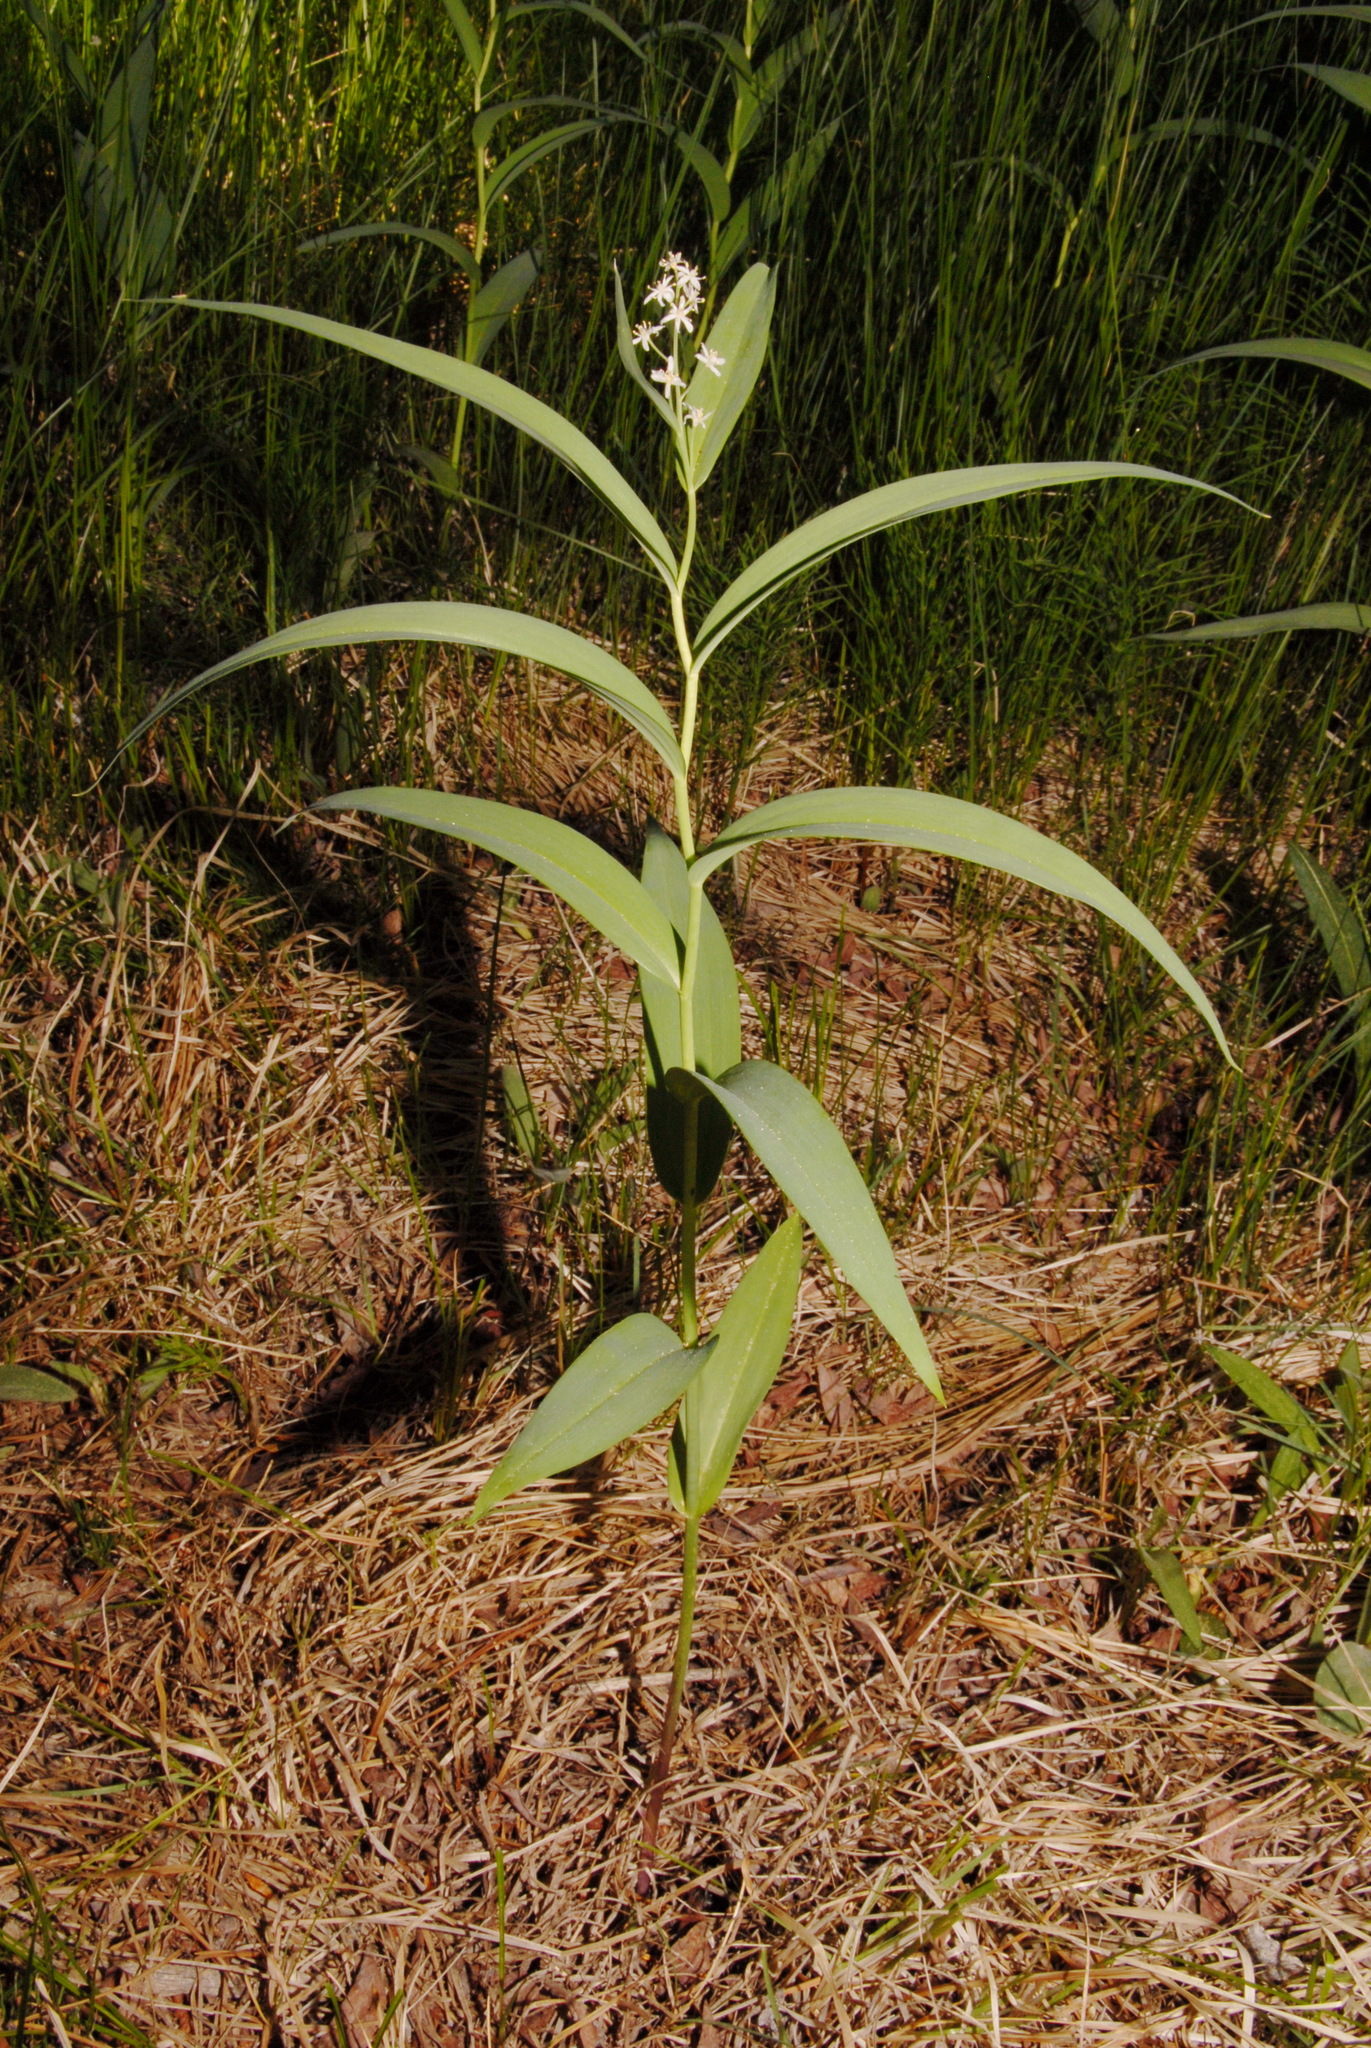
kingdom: Plantae
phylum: Tracheophyta
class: Liliopsida
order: Asparagales
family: Asparagaceae
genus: Maianthemum
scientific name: Maianthemum stellatum
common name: Little false solomon's seal
